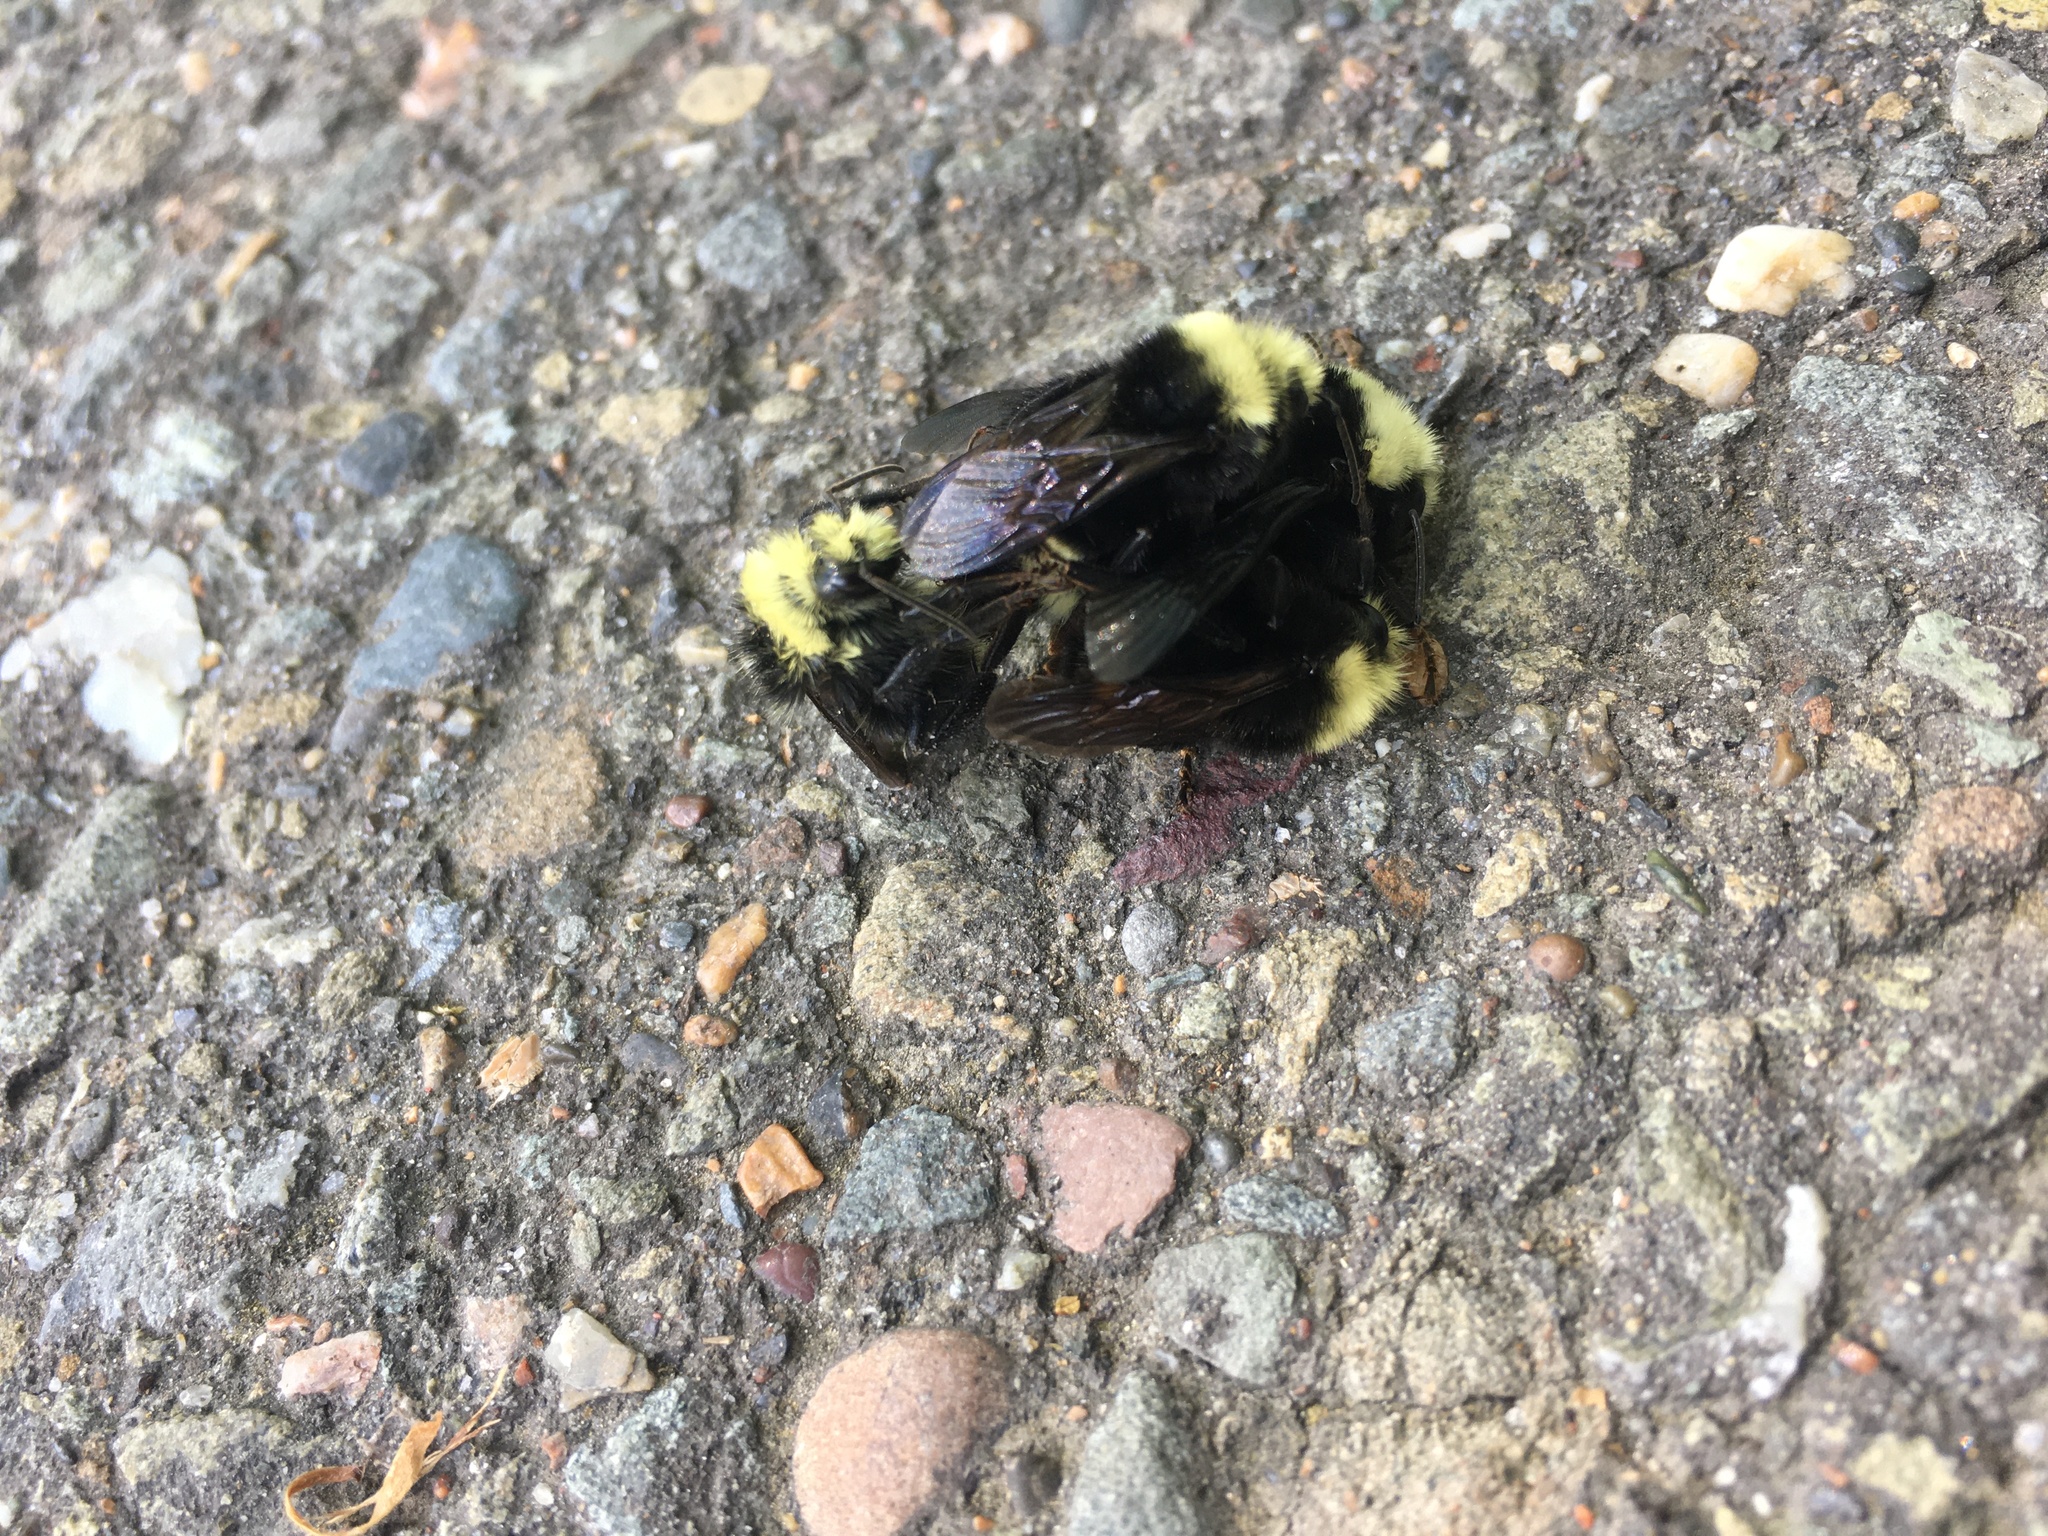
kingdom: Animalia
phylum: Arthropoda
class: Insecta
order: Hymenoptera
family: Apidae
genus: Bombus
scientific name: Bombus vosnesenskii
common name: Vosnesensky bumble bee
